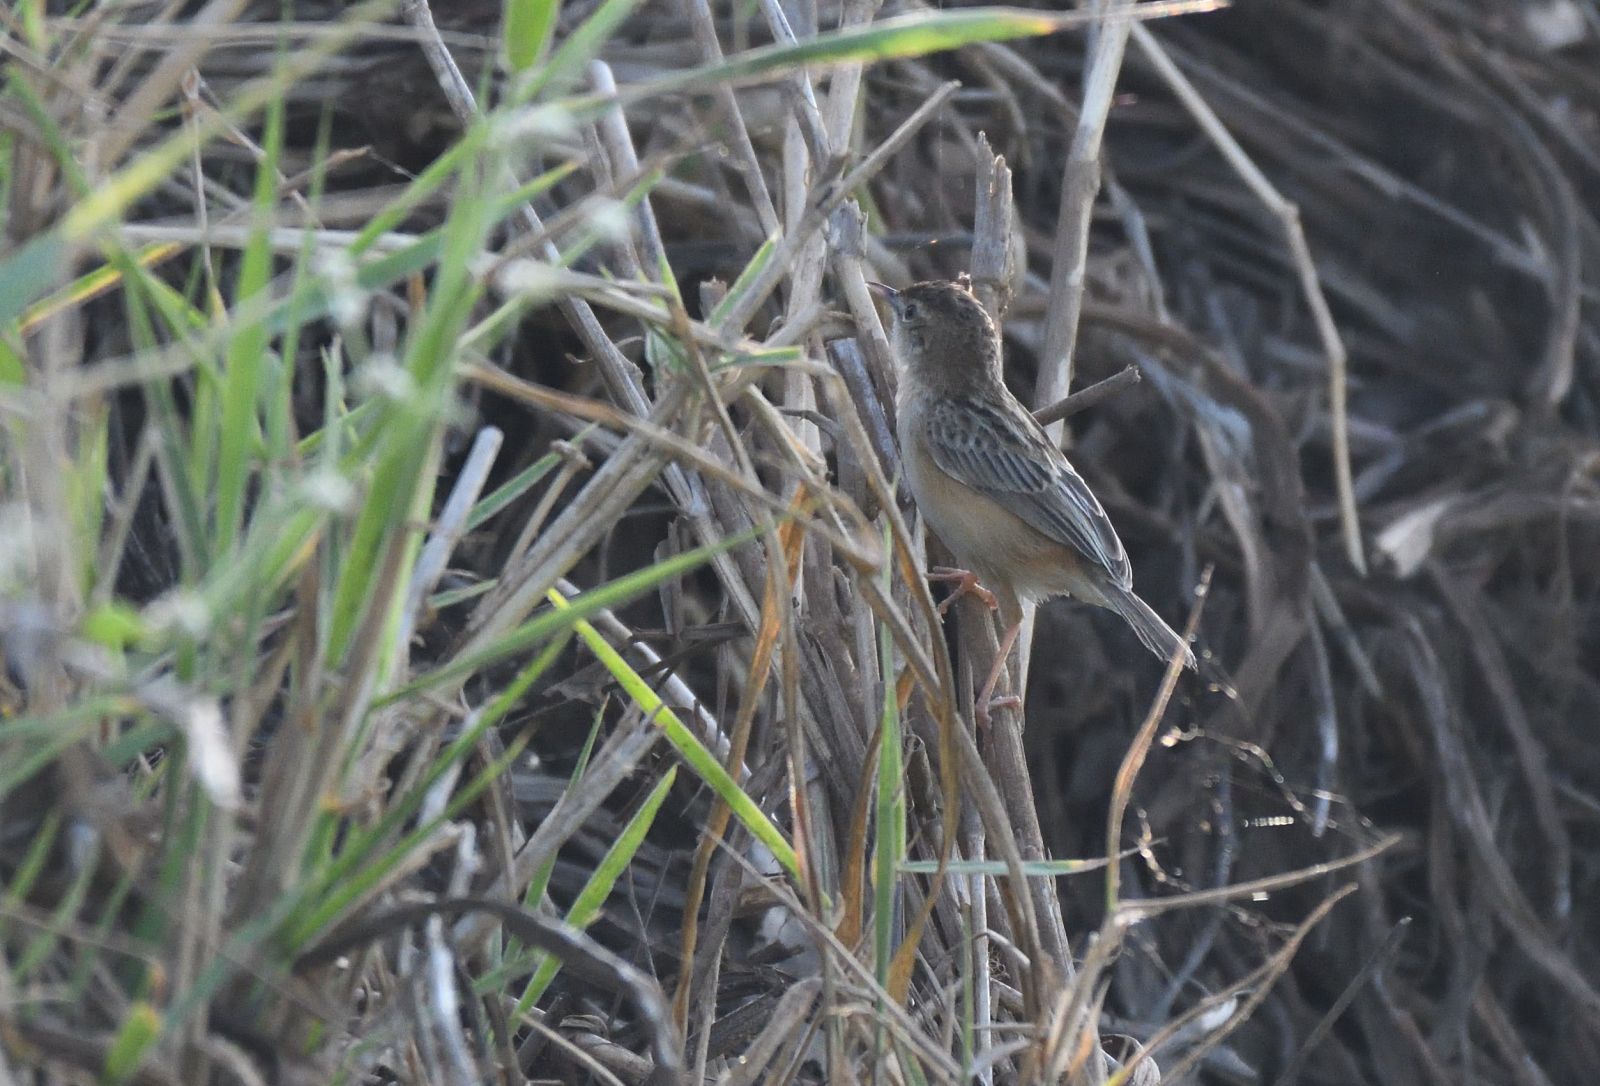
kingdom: Animalia
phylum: Chordata
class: Aves
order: Passeriformes
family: Cisticolidae
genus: Cisticola
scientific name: Cisticola juncidis
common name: Zitting cisticola
